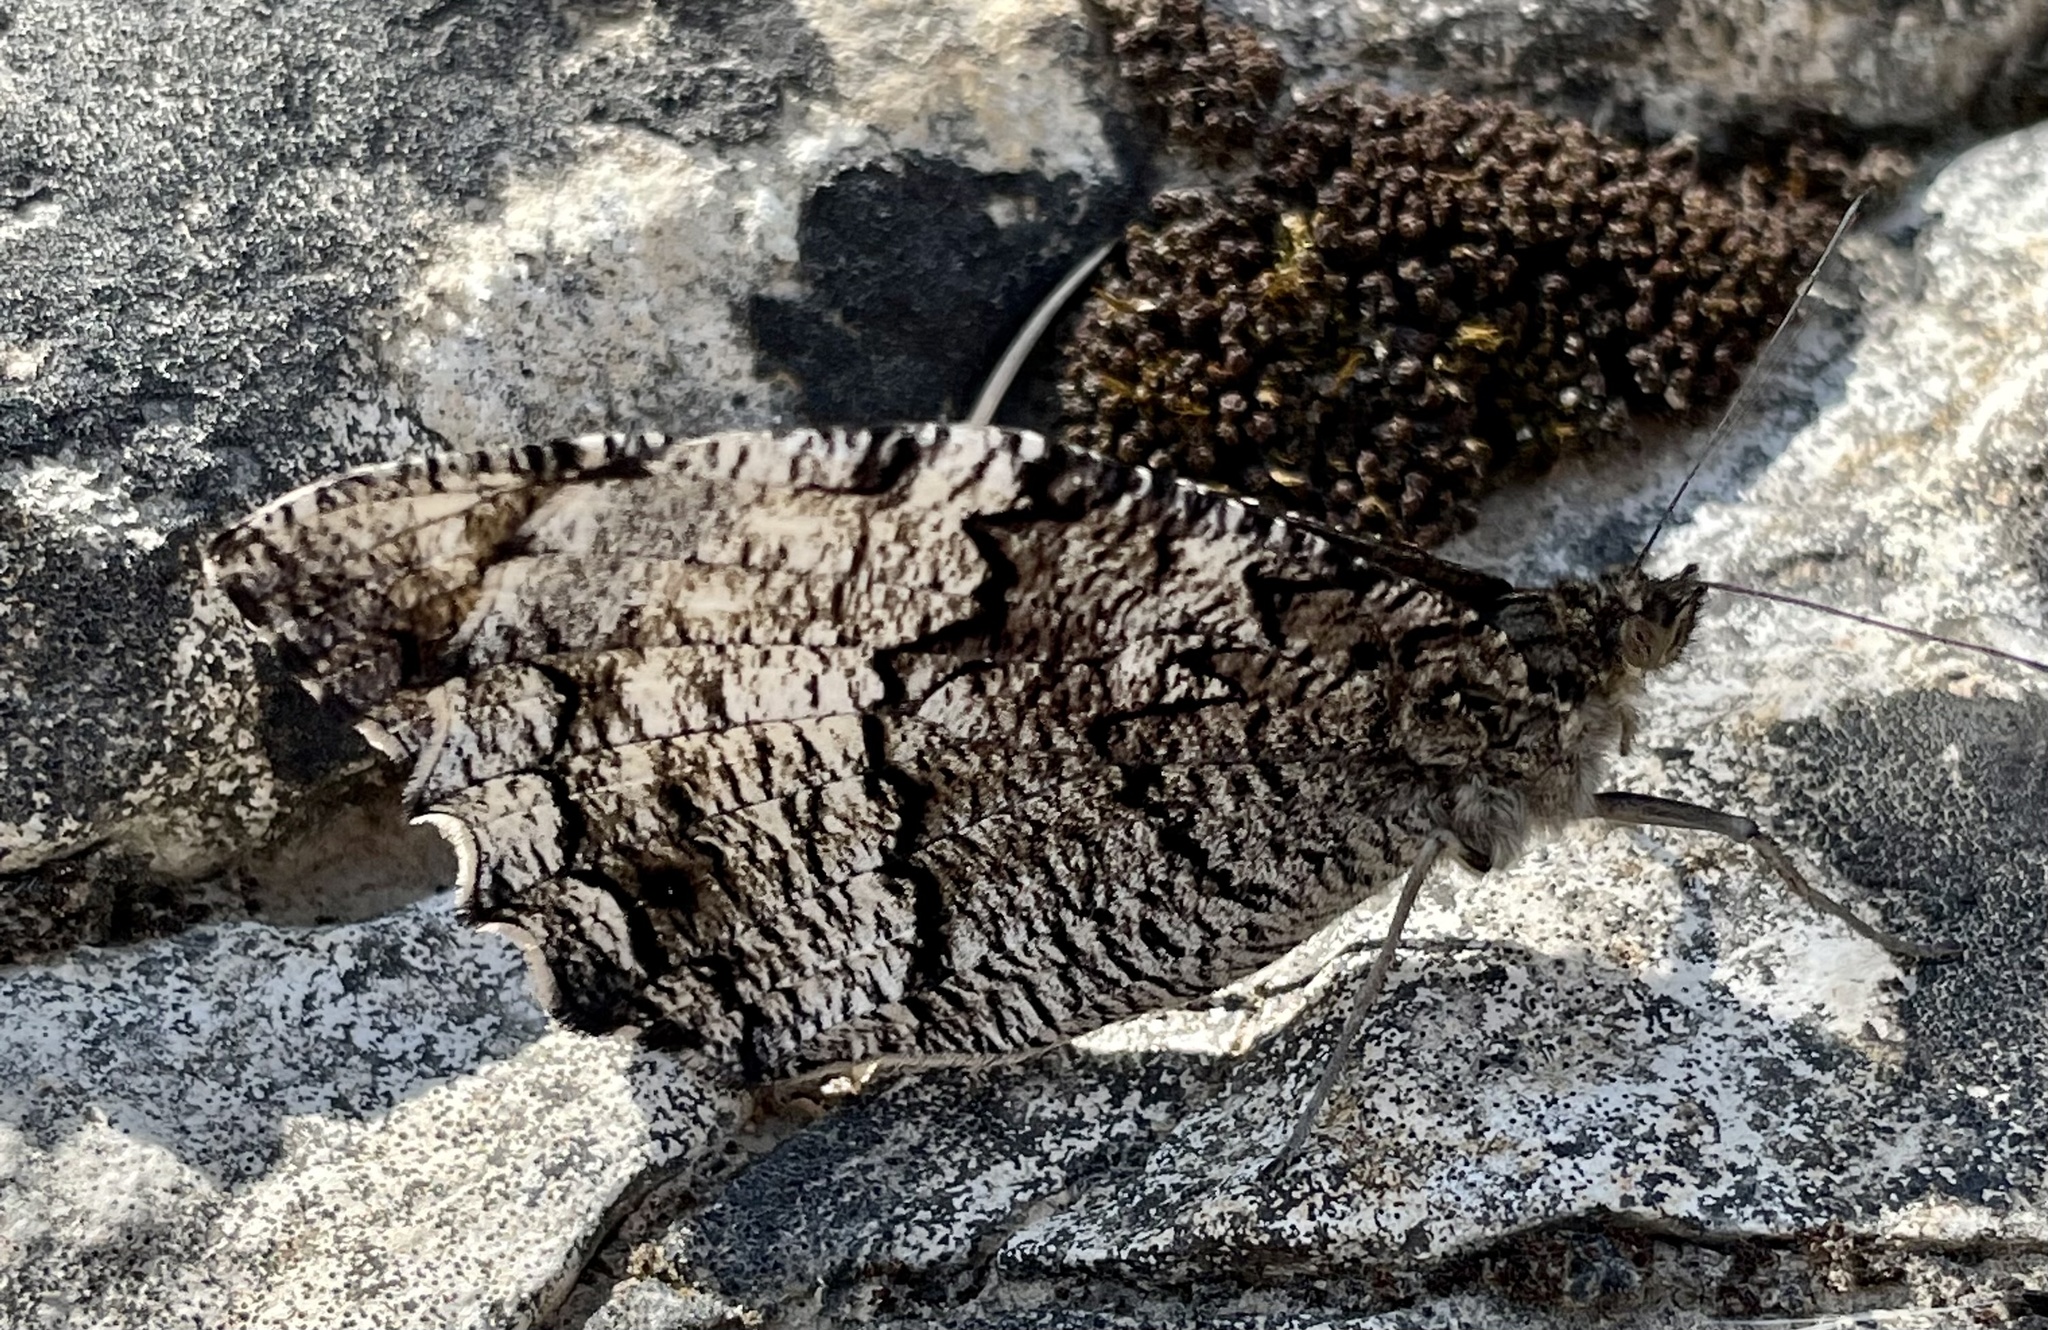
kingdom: Animalia
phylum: Arthropoda
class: Insecta
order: Lepidoptera
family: Nymphalidae
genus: Hipparchia
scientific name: Hipparchia fagi
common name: Woodland grayling
